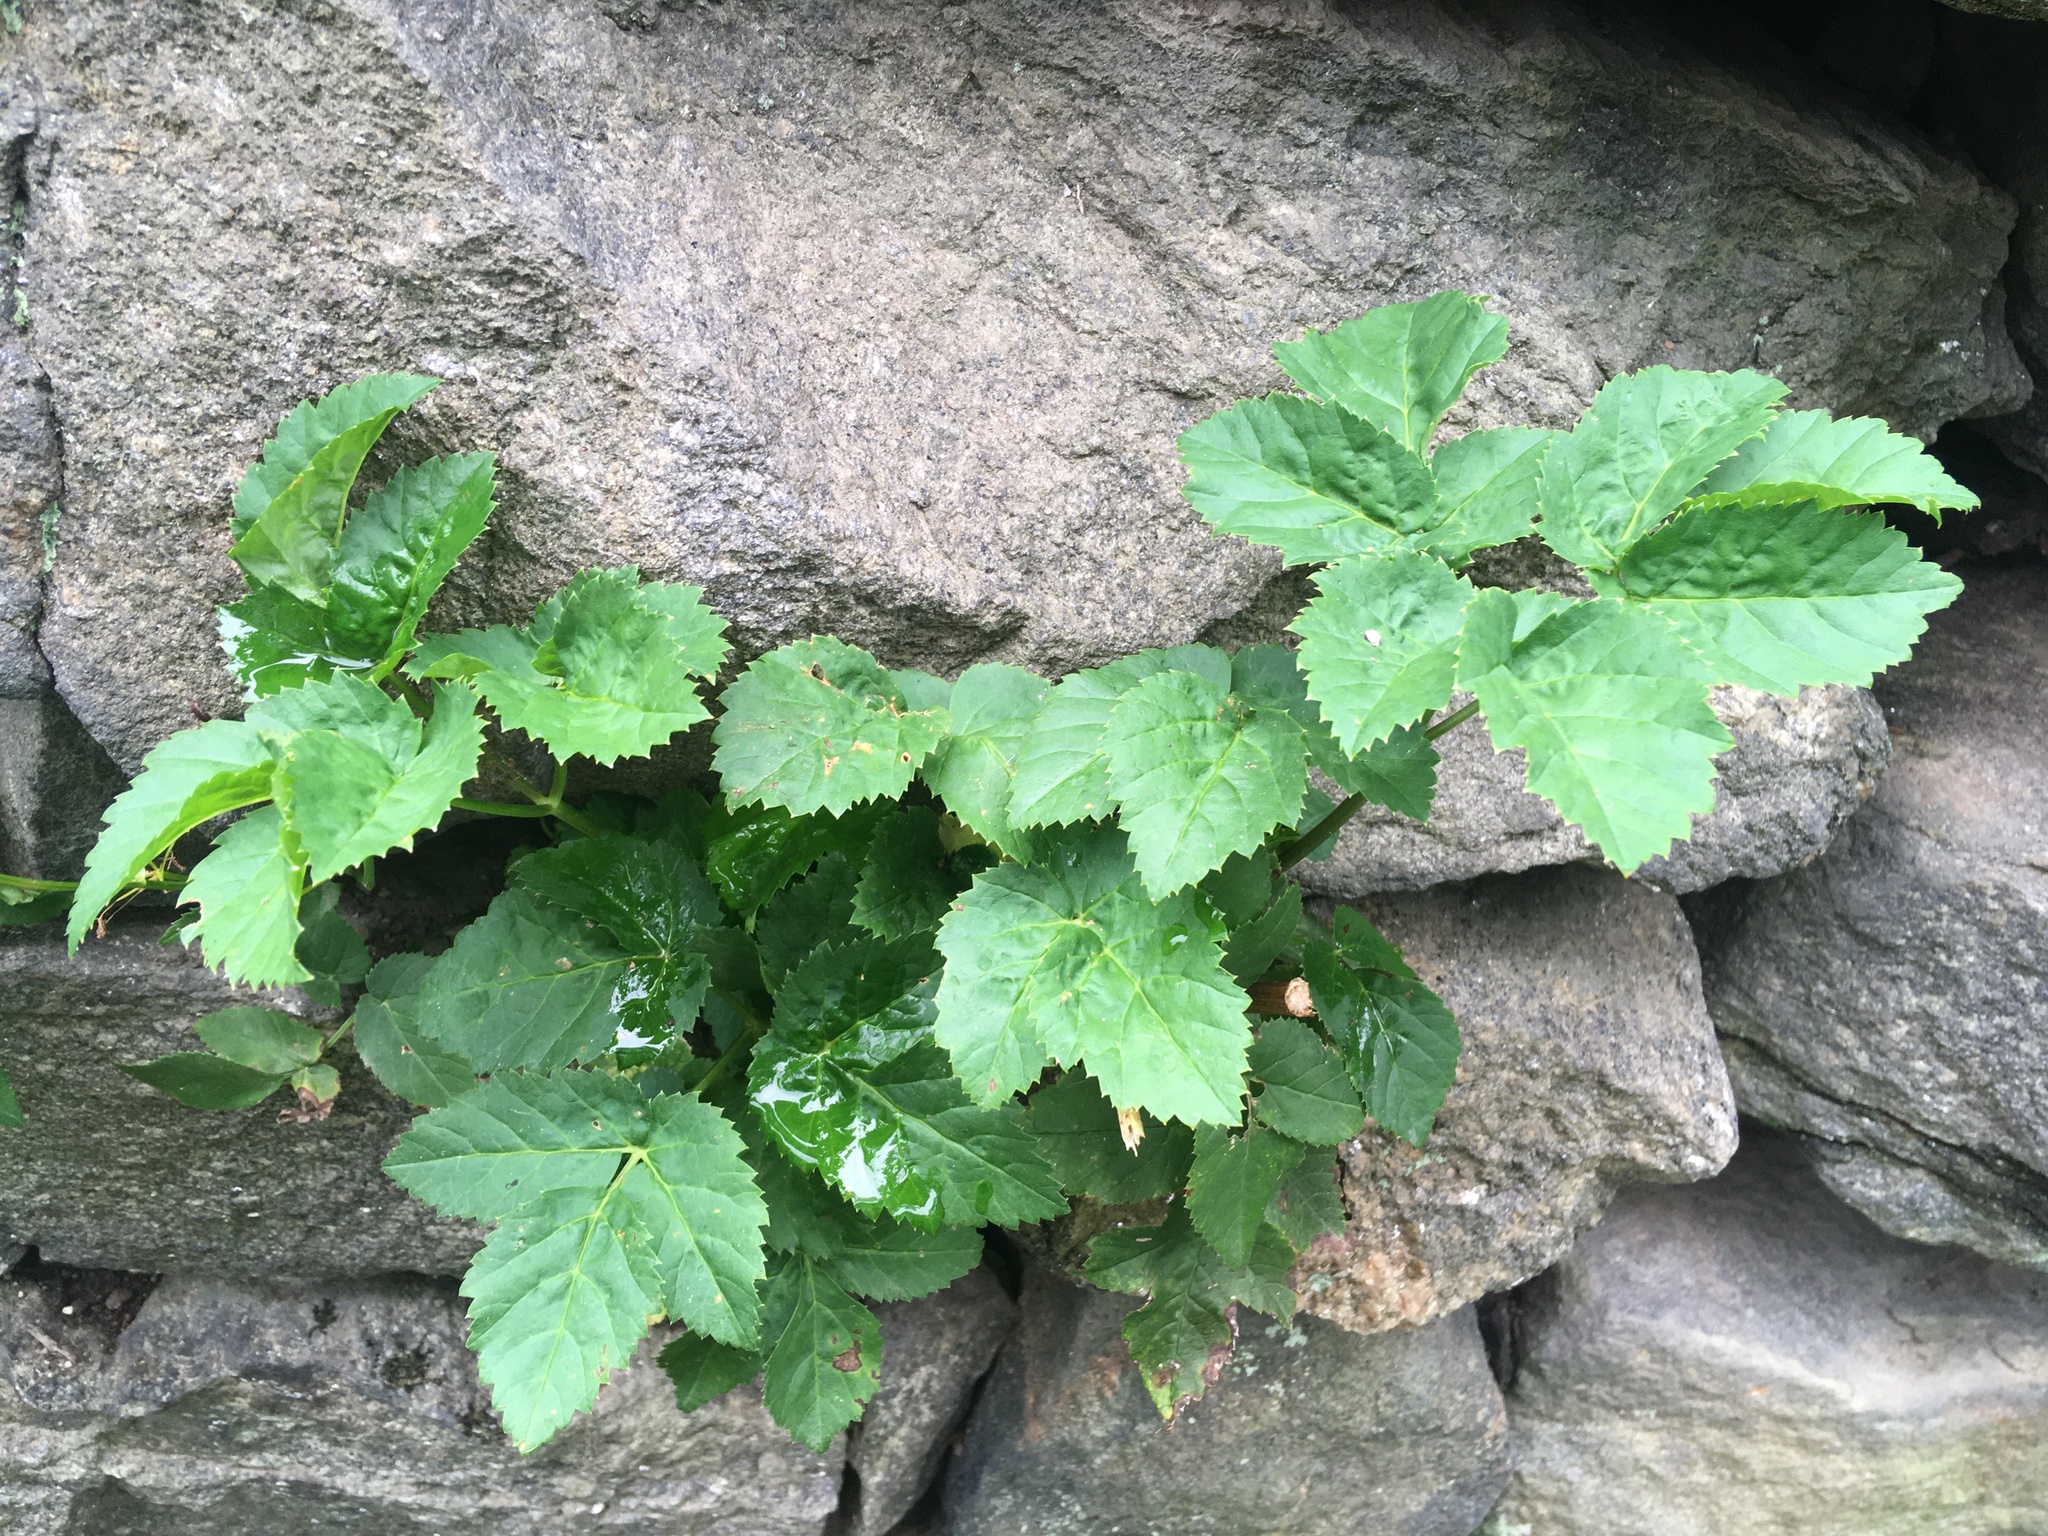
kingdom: Plantae
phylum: Tracheophyta
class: Magnoliopsida
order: Apiales
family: Apiaceae
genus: Aegopodium
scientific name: Aegopodium podagraria
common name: Ground-elder
